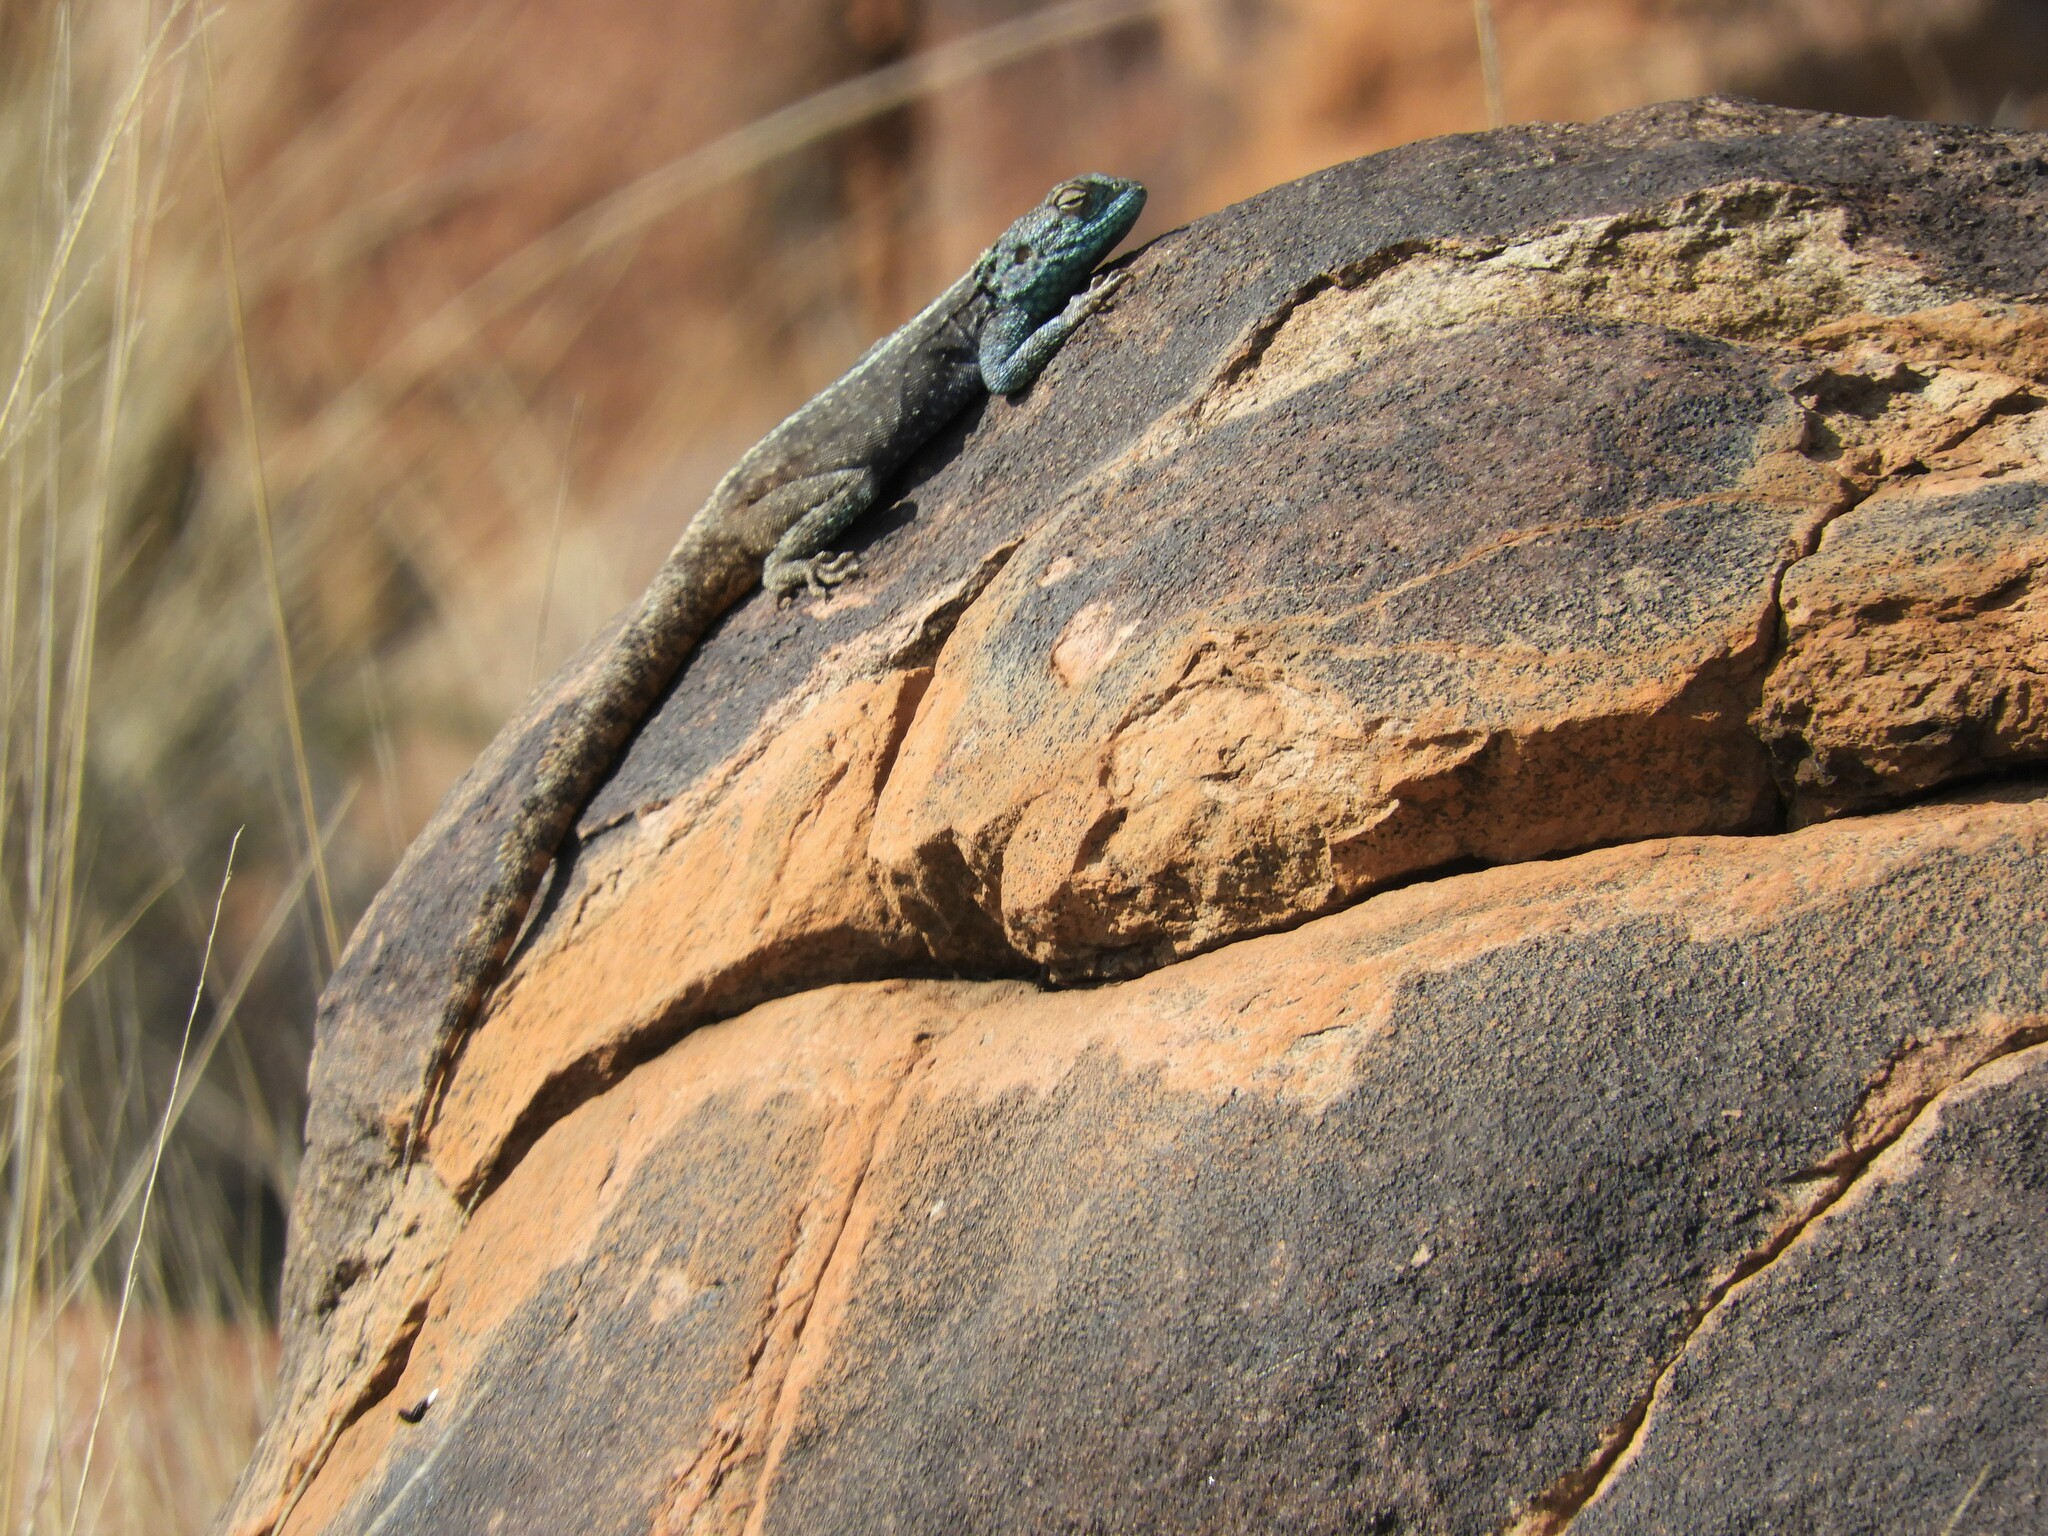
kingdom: Animalia
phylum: Chordata
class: Squamata
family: Agamidae
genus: Agama
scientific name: Agama atra
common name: Southern african rock agama
